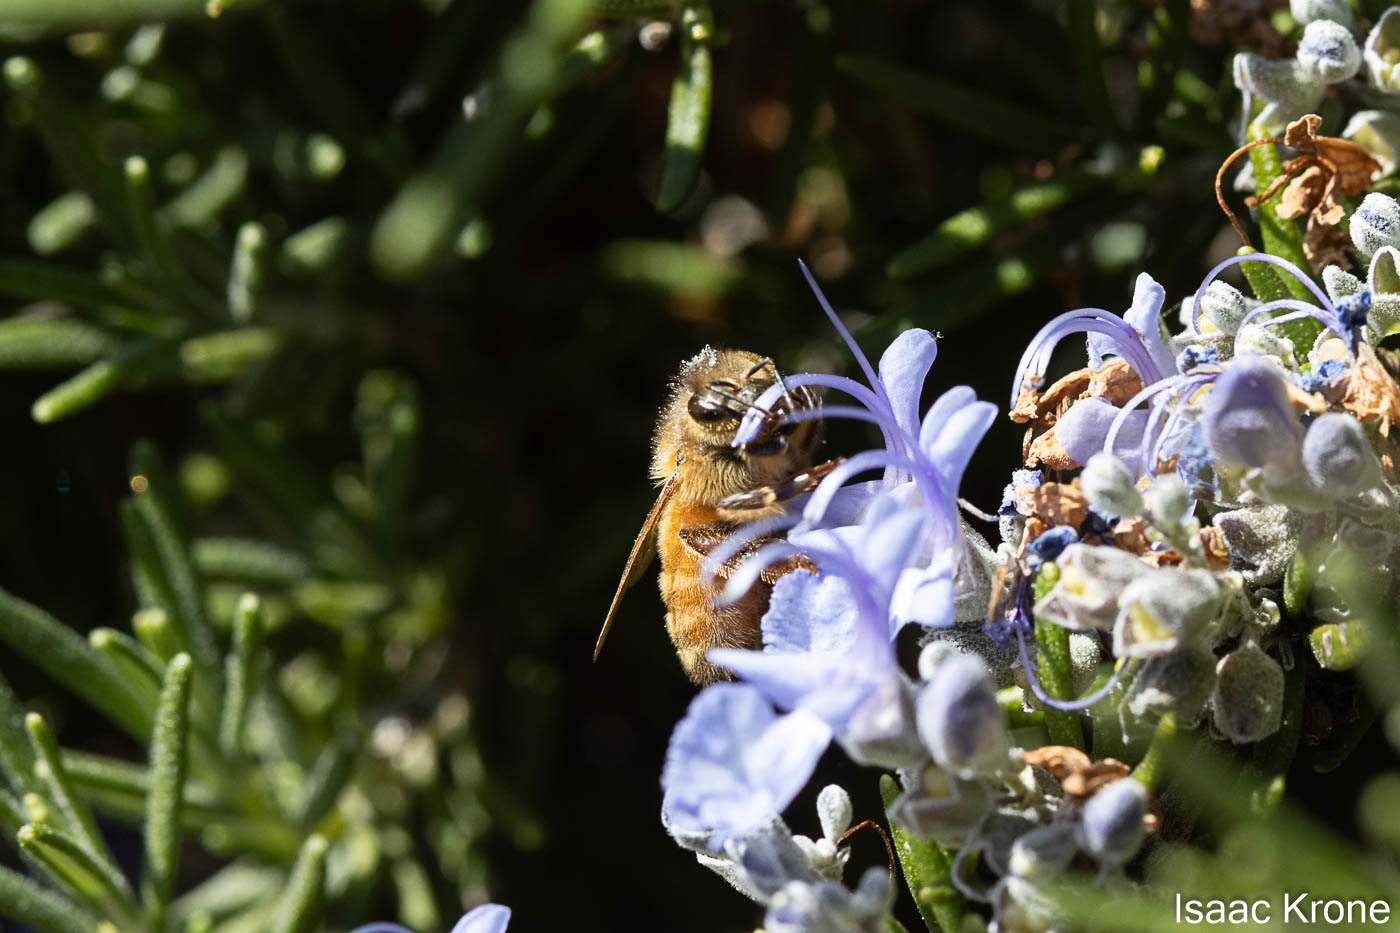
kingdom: Animalia
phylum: Arthropoda
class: Insecta
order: Hymenoptera
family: Apidae
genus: Apis
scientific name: Apis mellifera
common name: Honey bee
